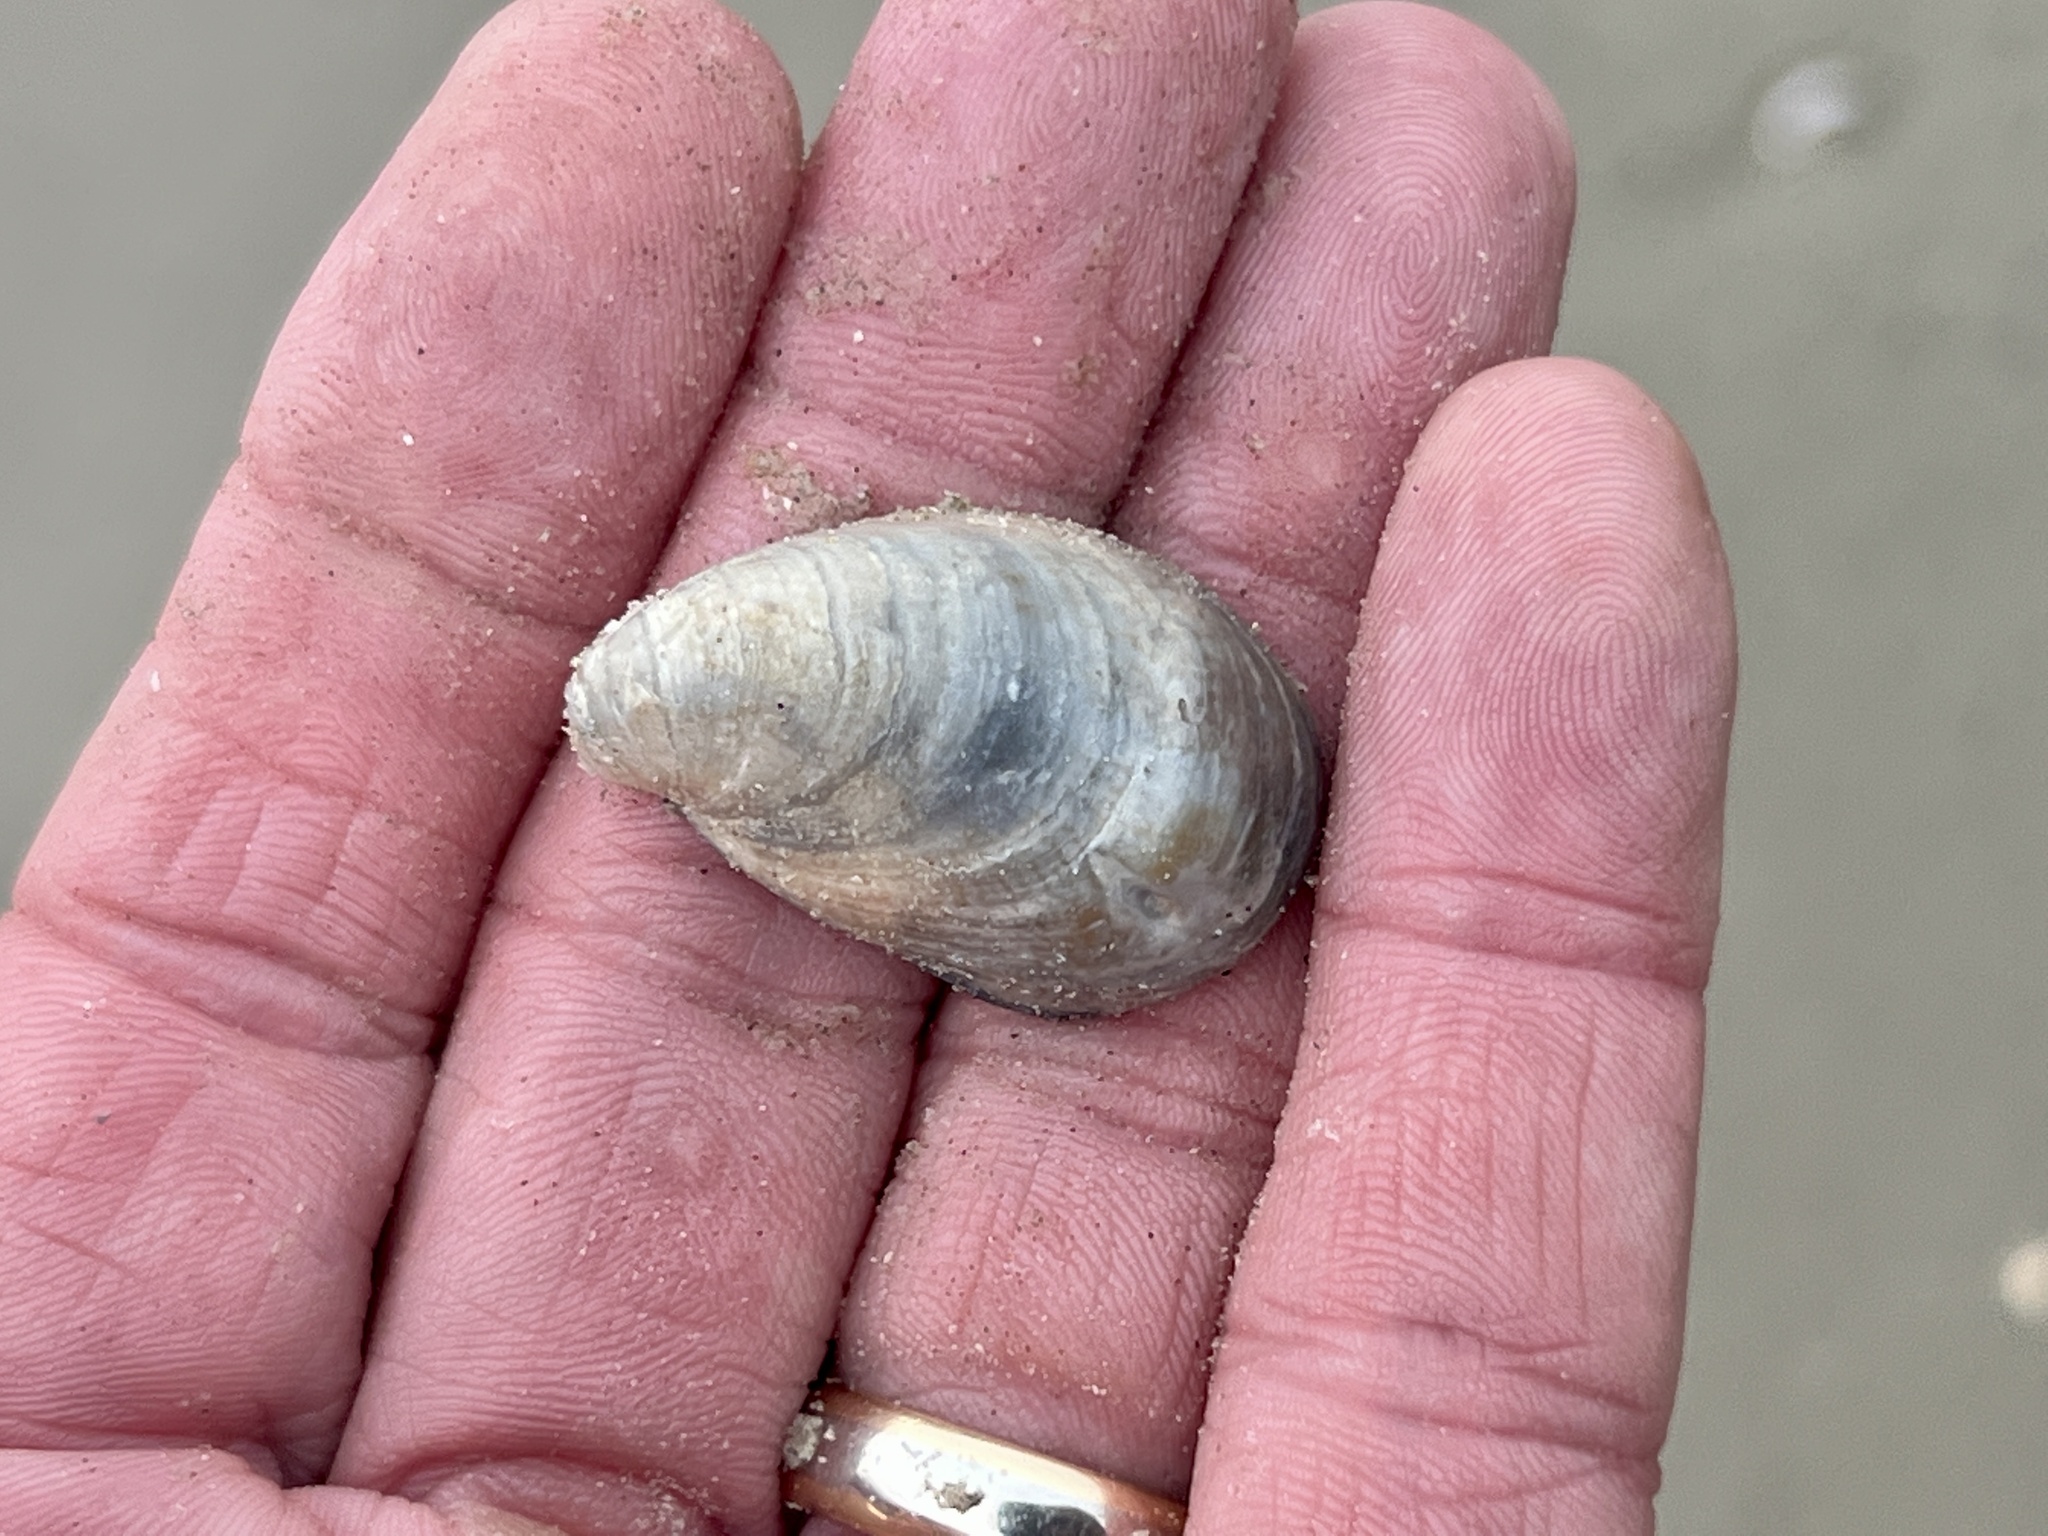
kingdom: Animalia
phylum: Mollusca
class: Gastropoda
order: Littorinimorpha
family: Calyptraeidae
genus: Crepidula
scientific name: Crepidula fornicata
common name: Slipper limpet
